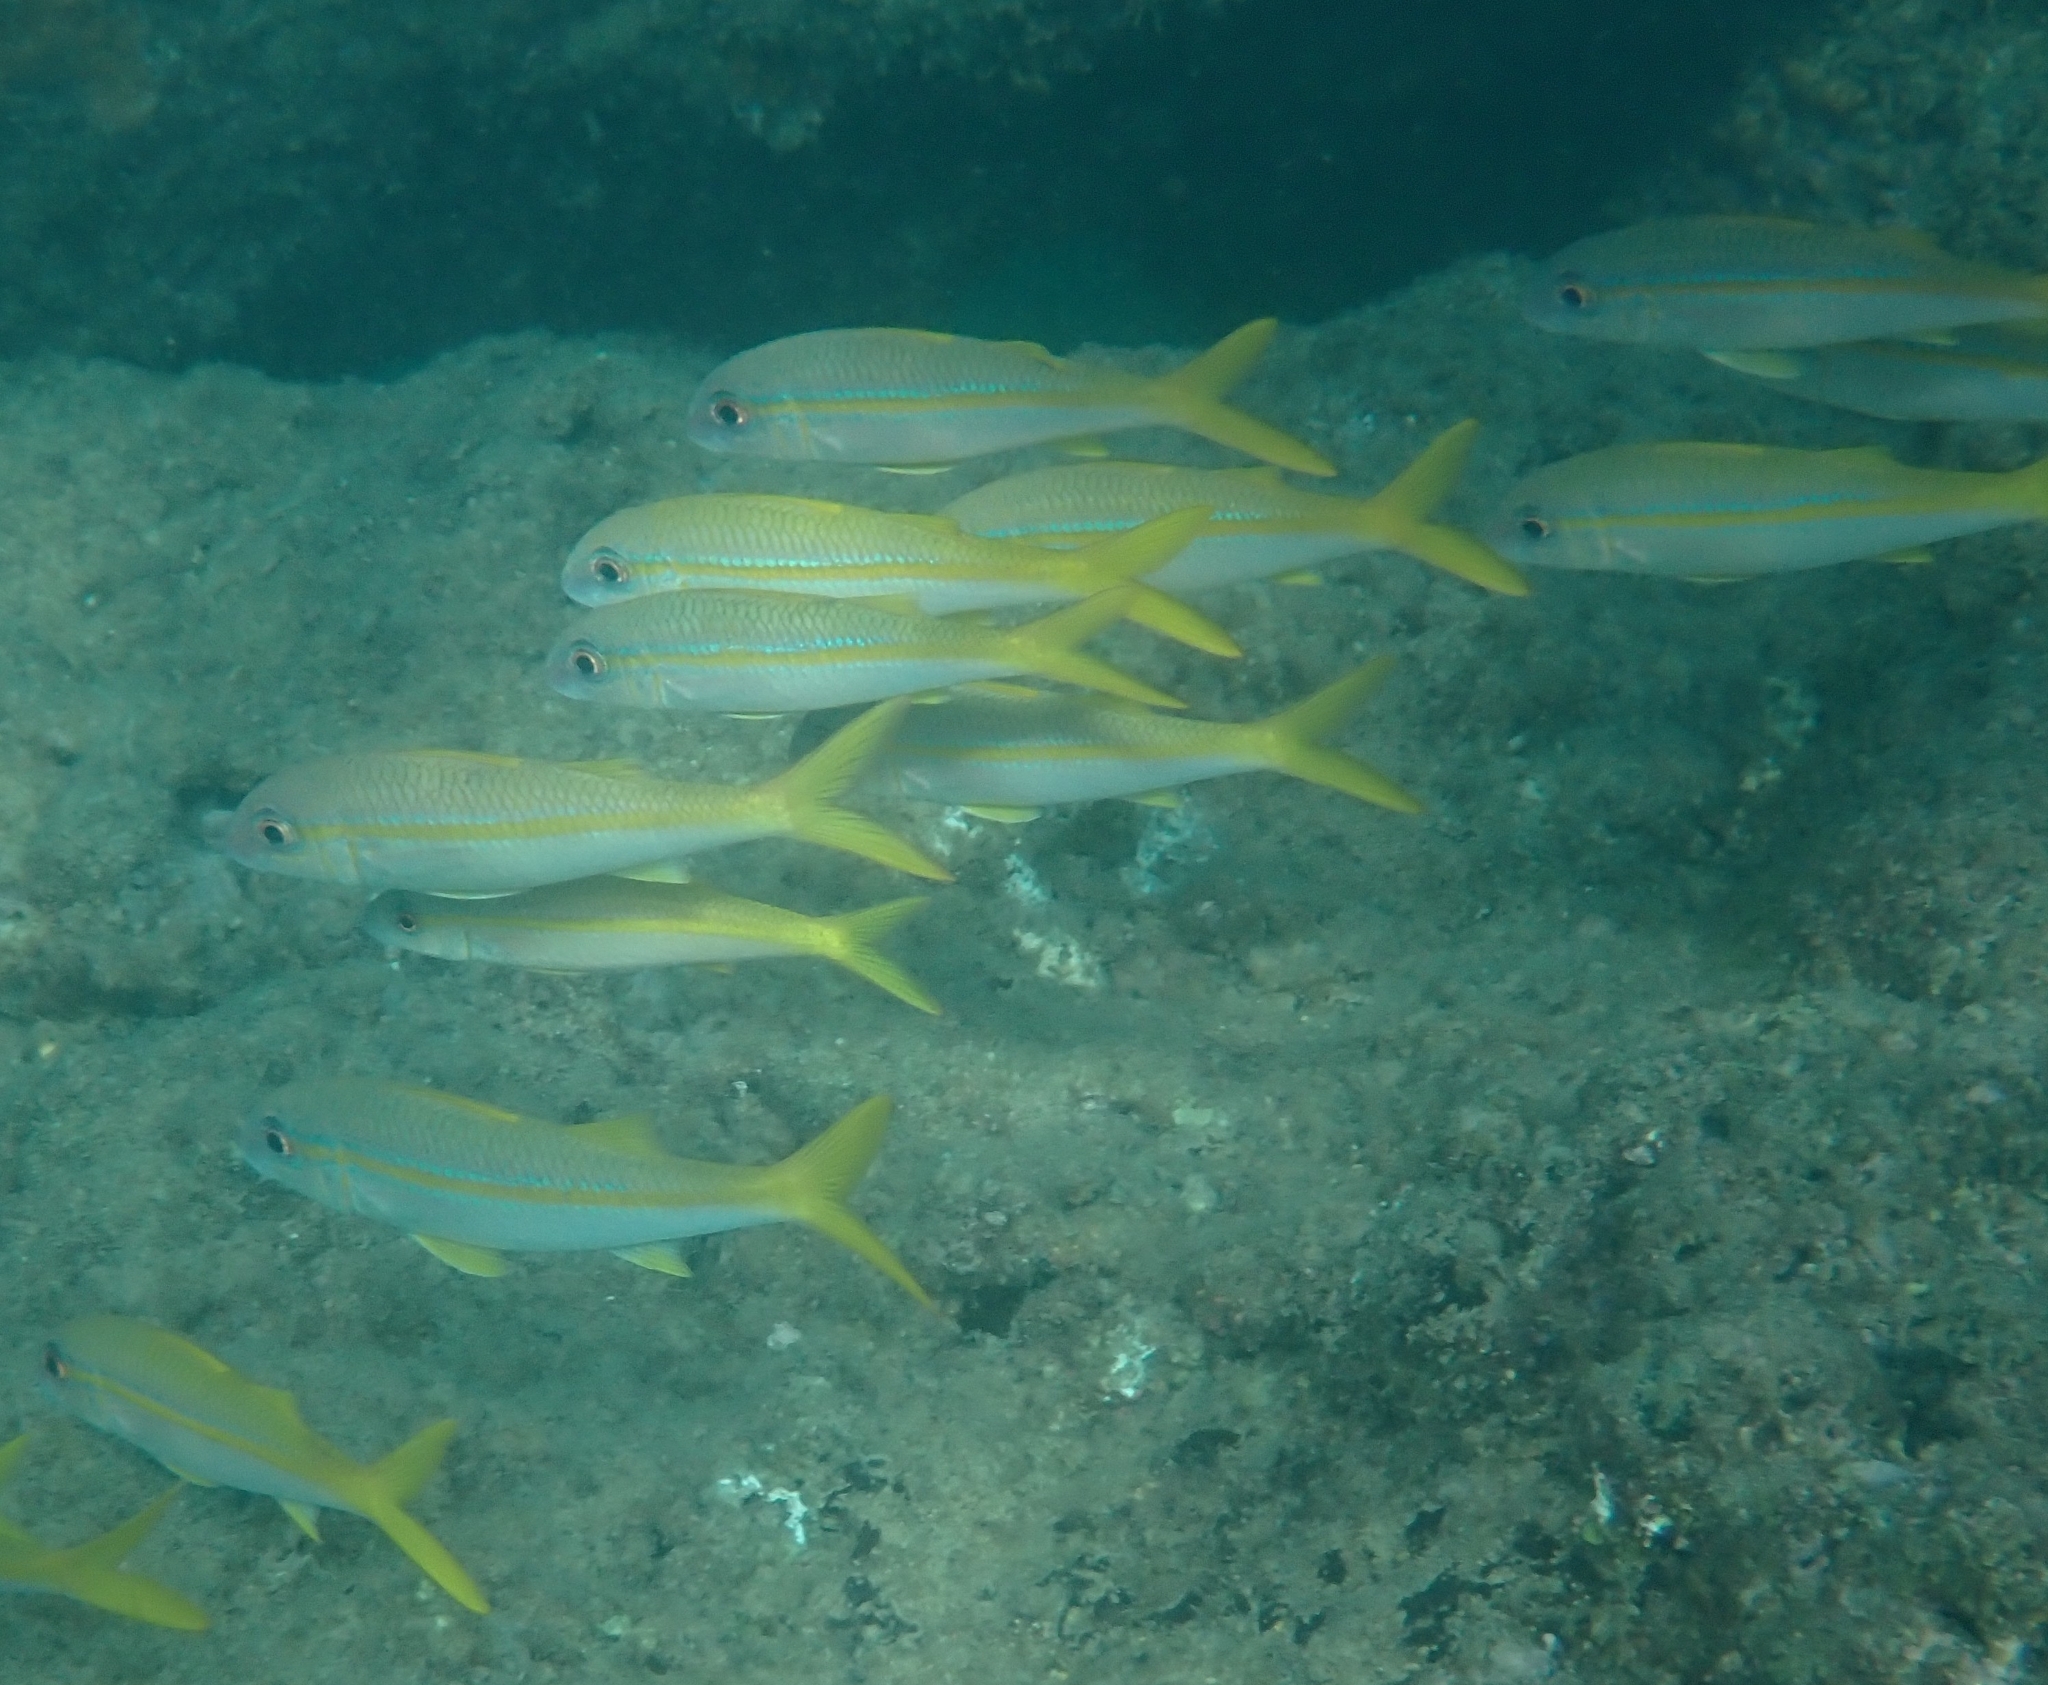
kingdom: Animalia
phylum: Chordata
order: Perciformes
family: Mullidae
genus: Mulloidichthys
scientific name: Mulloidichthys vanicolensis
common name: Yellowfin goatfish
